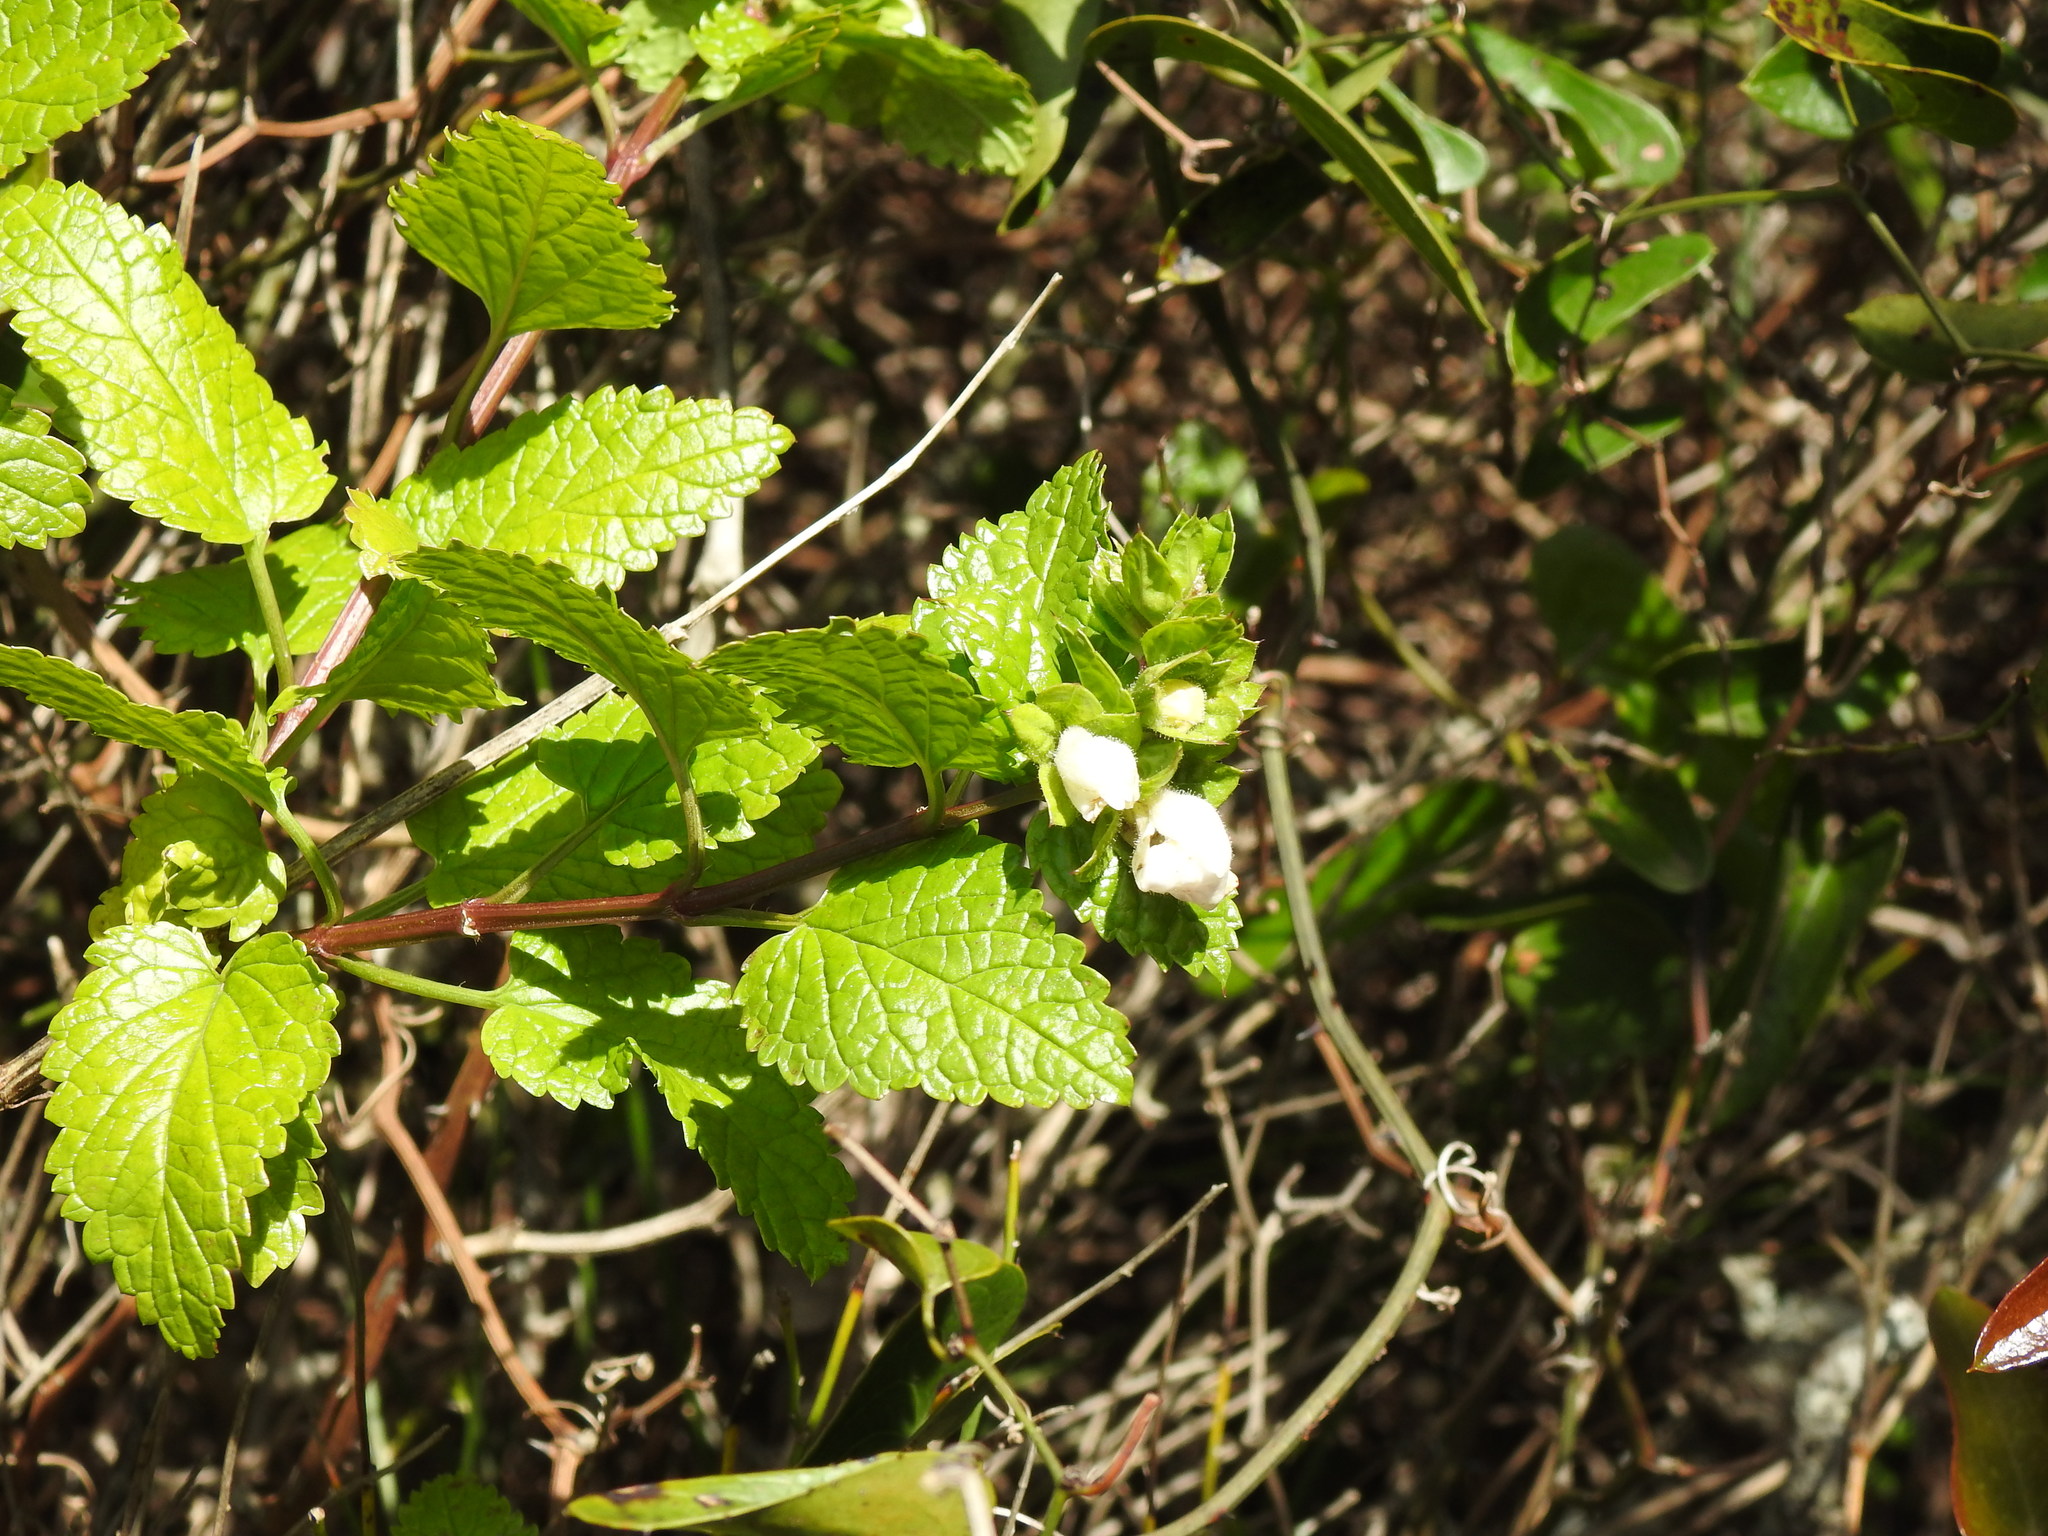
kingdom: Plantae
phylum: Tracheophyta
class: Magnoliopsida
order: Lamiales
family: Lamiaceae
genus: Prasium
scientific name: Prasium majus
